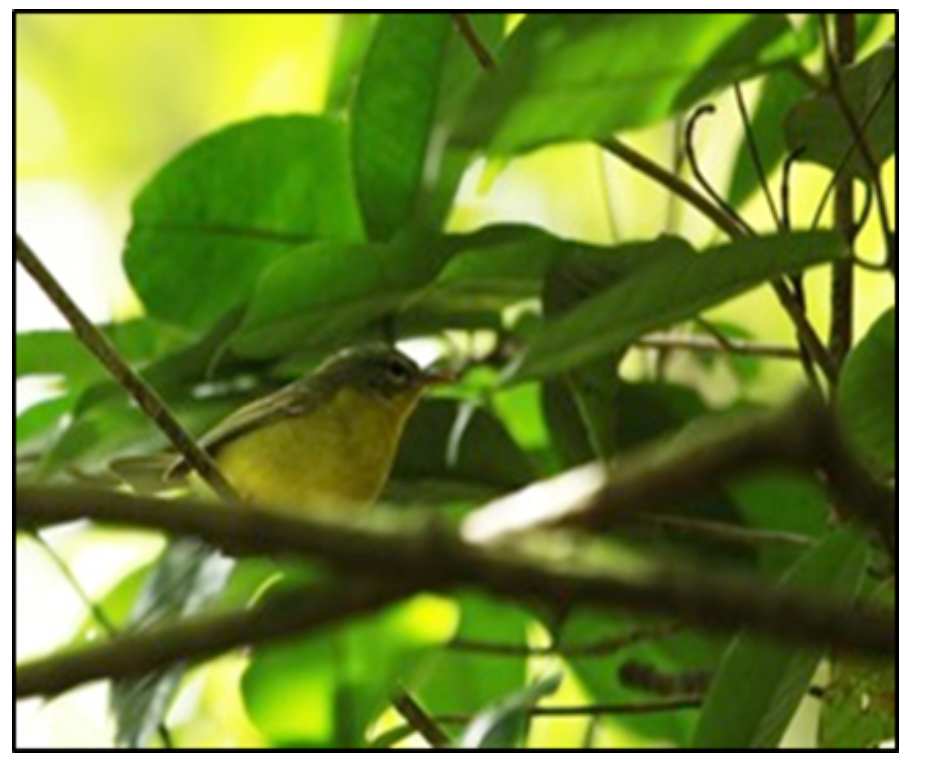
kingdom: Animalia
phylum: Chordata
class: Aves
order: Passeriformes
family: Parulidae
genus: Basileuterus
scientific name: Basileuterus culicivorus
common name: Golden-crowned warbler
